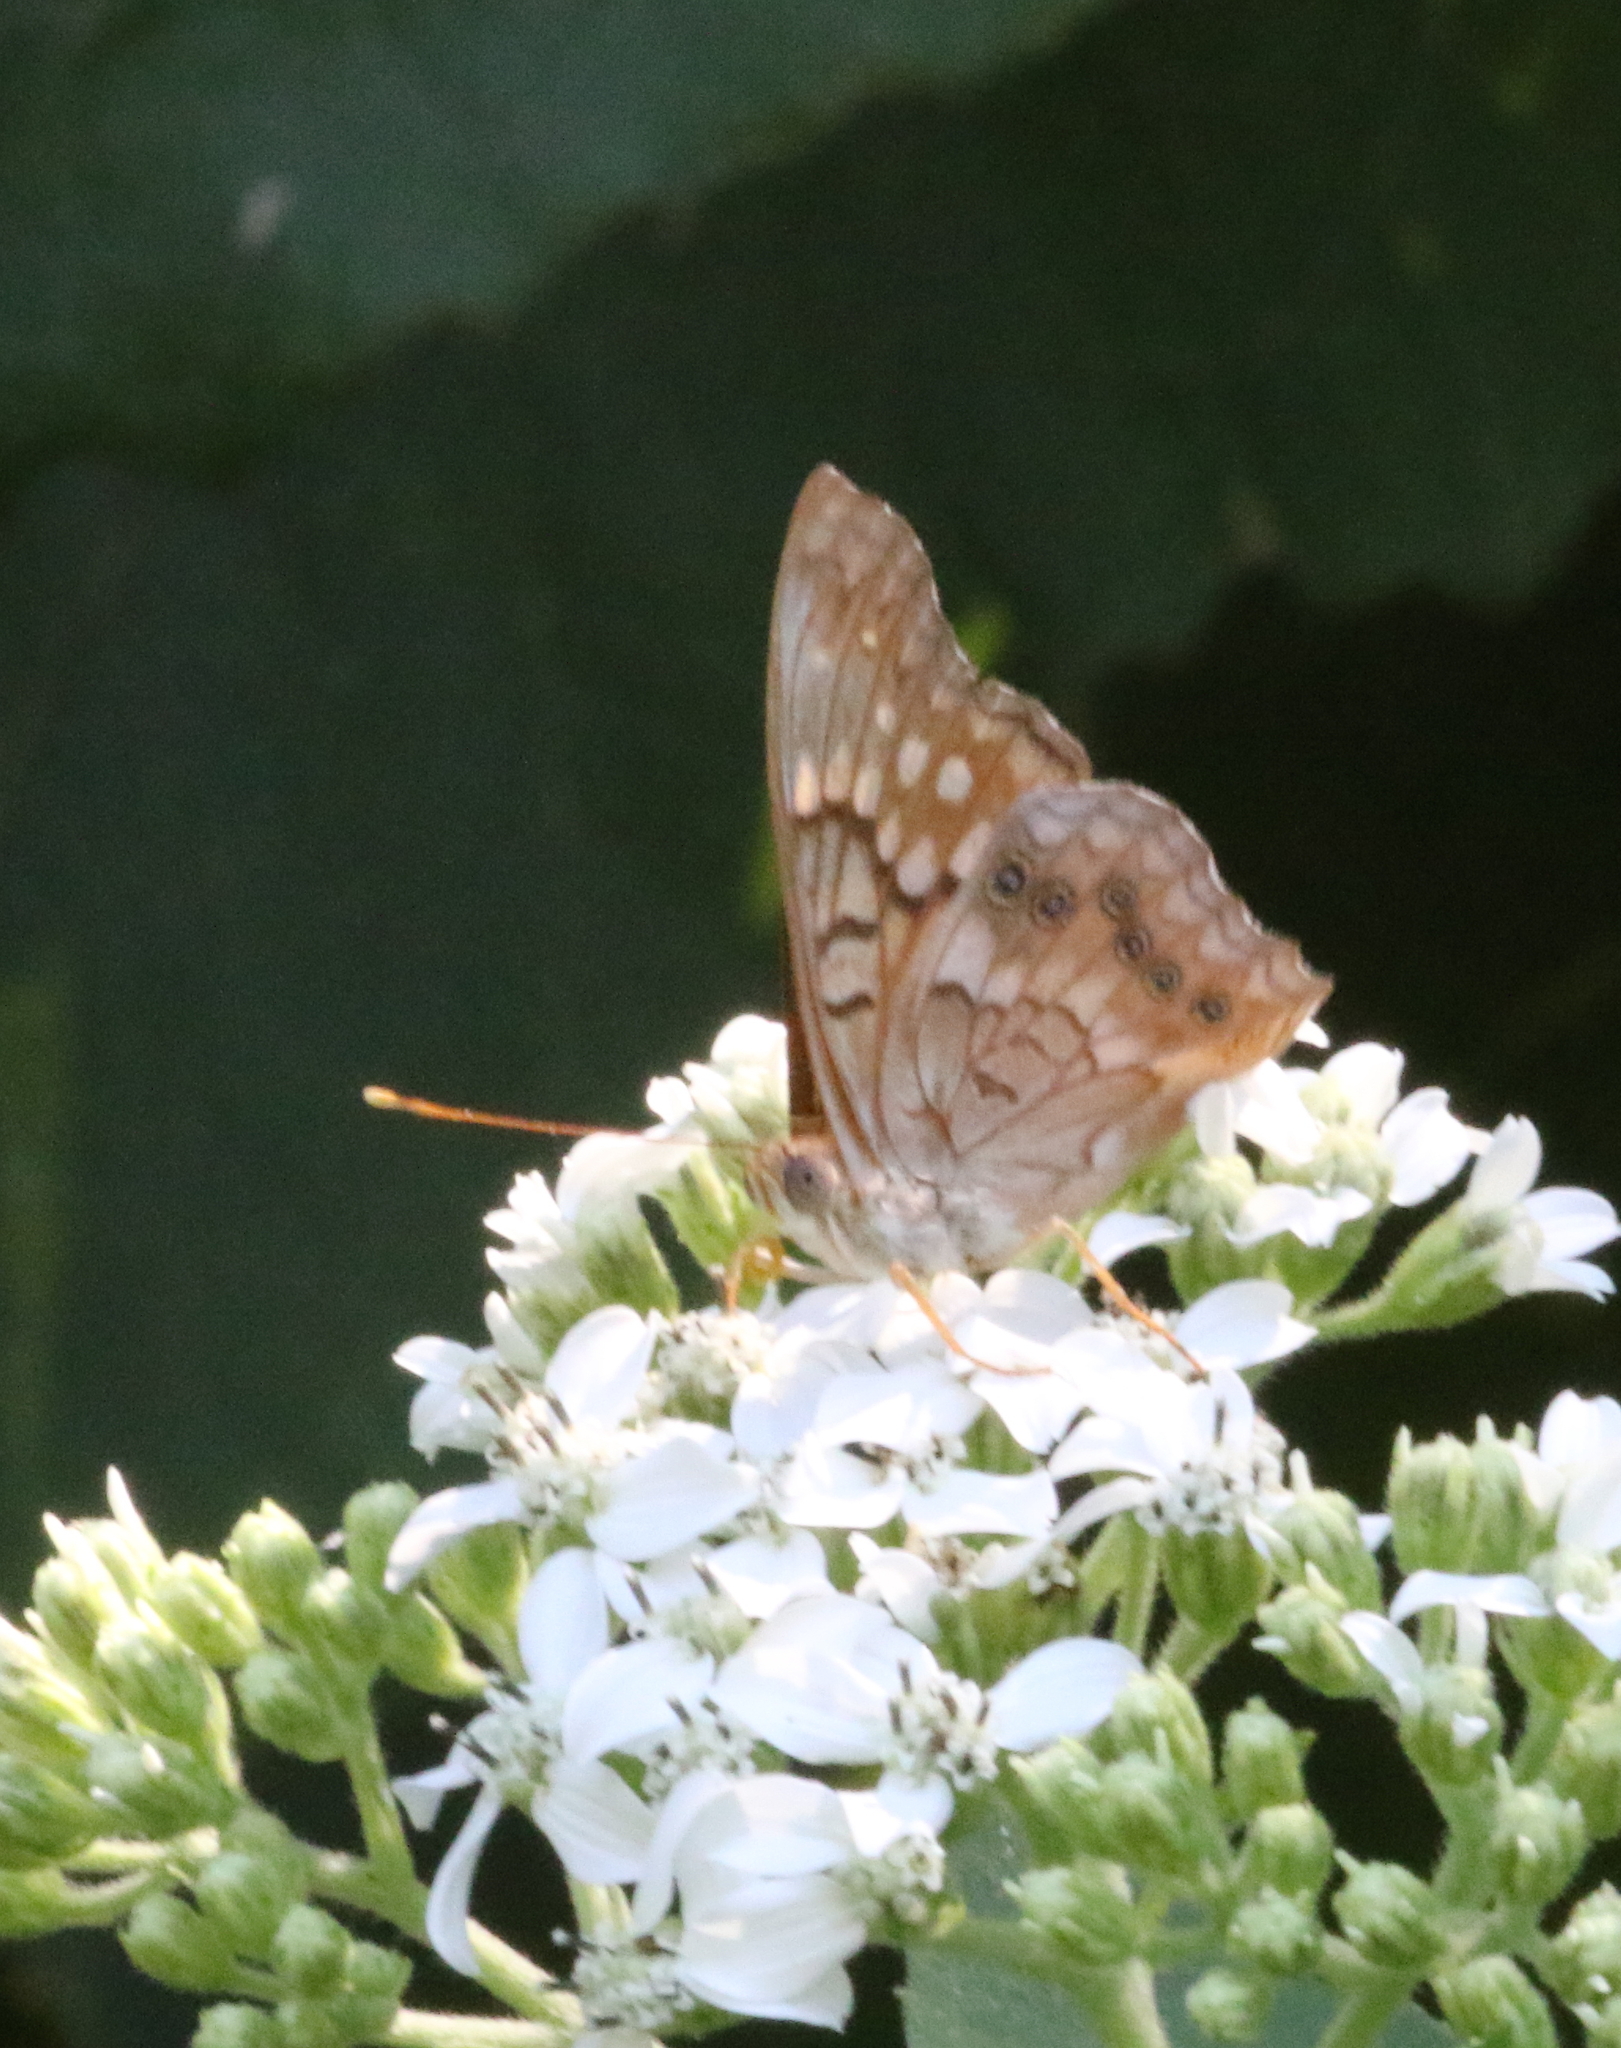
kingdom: Animalia
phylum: Arthropoda
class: Insecta
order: Lepidoptera
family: Nymphalidae
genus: Asterocampa
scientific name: Asterocampa clyton
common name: Tawny emperor
